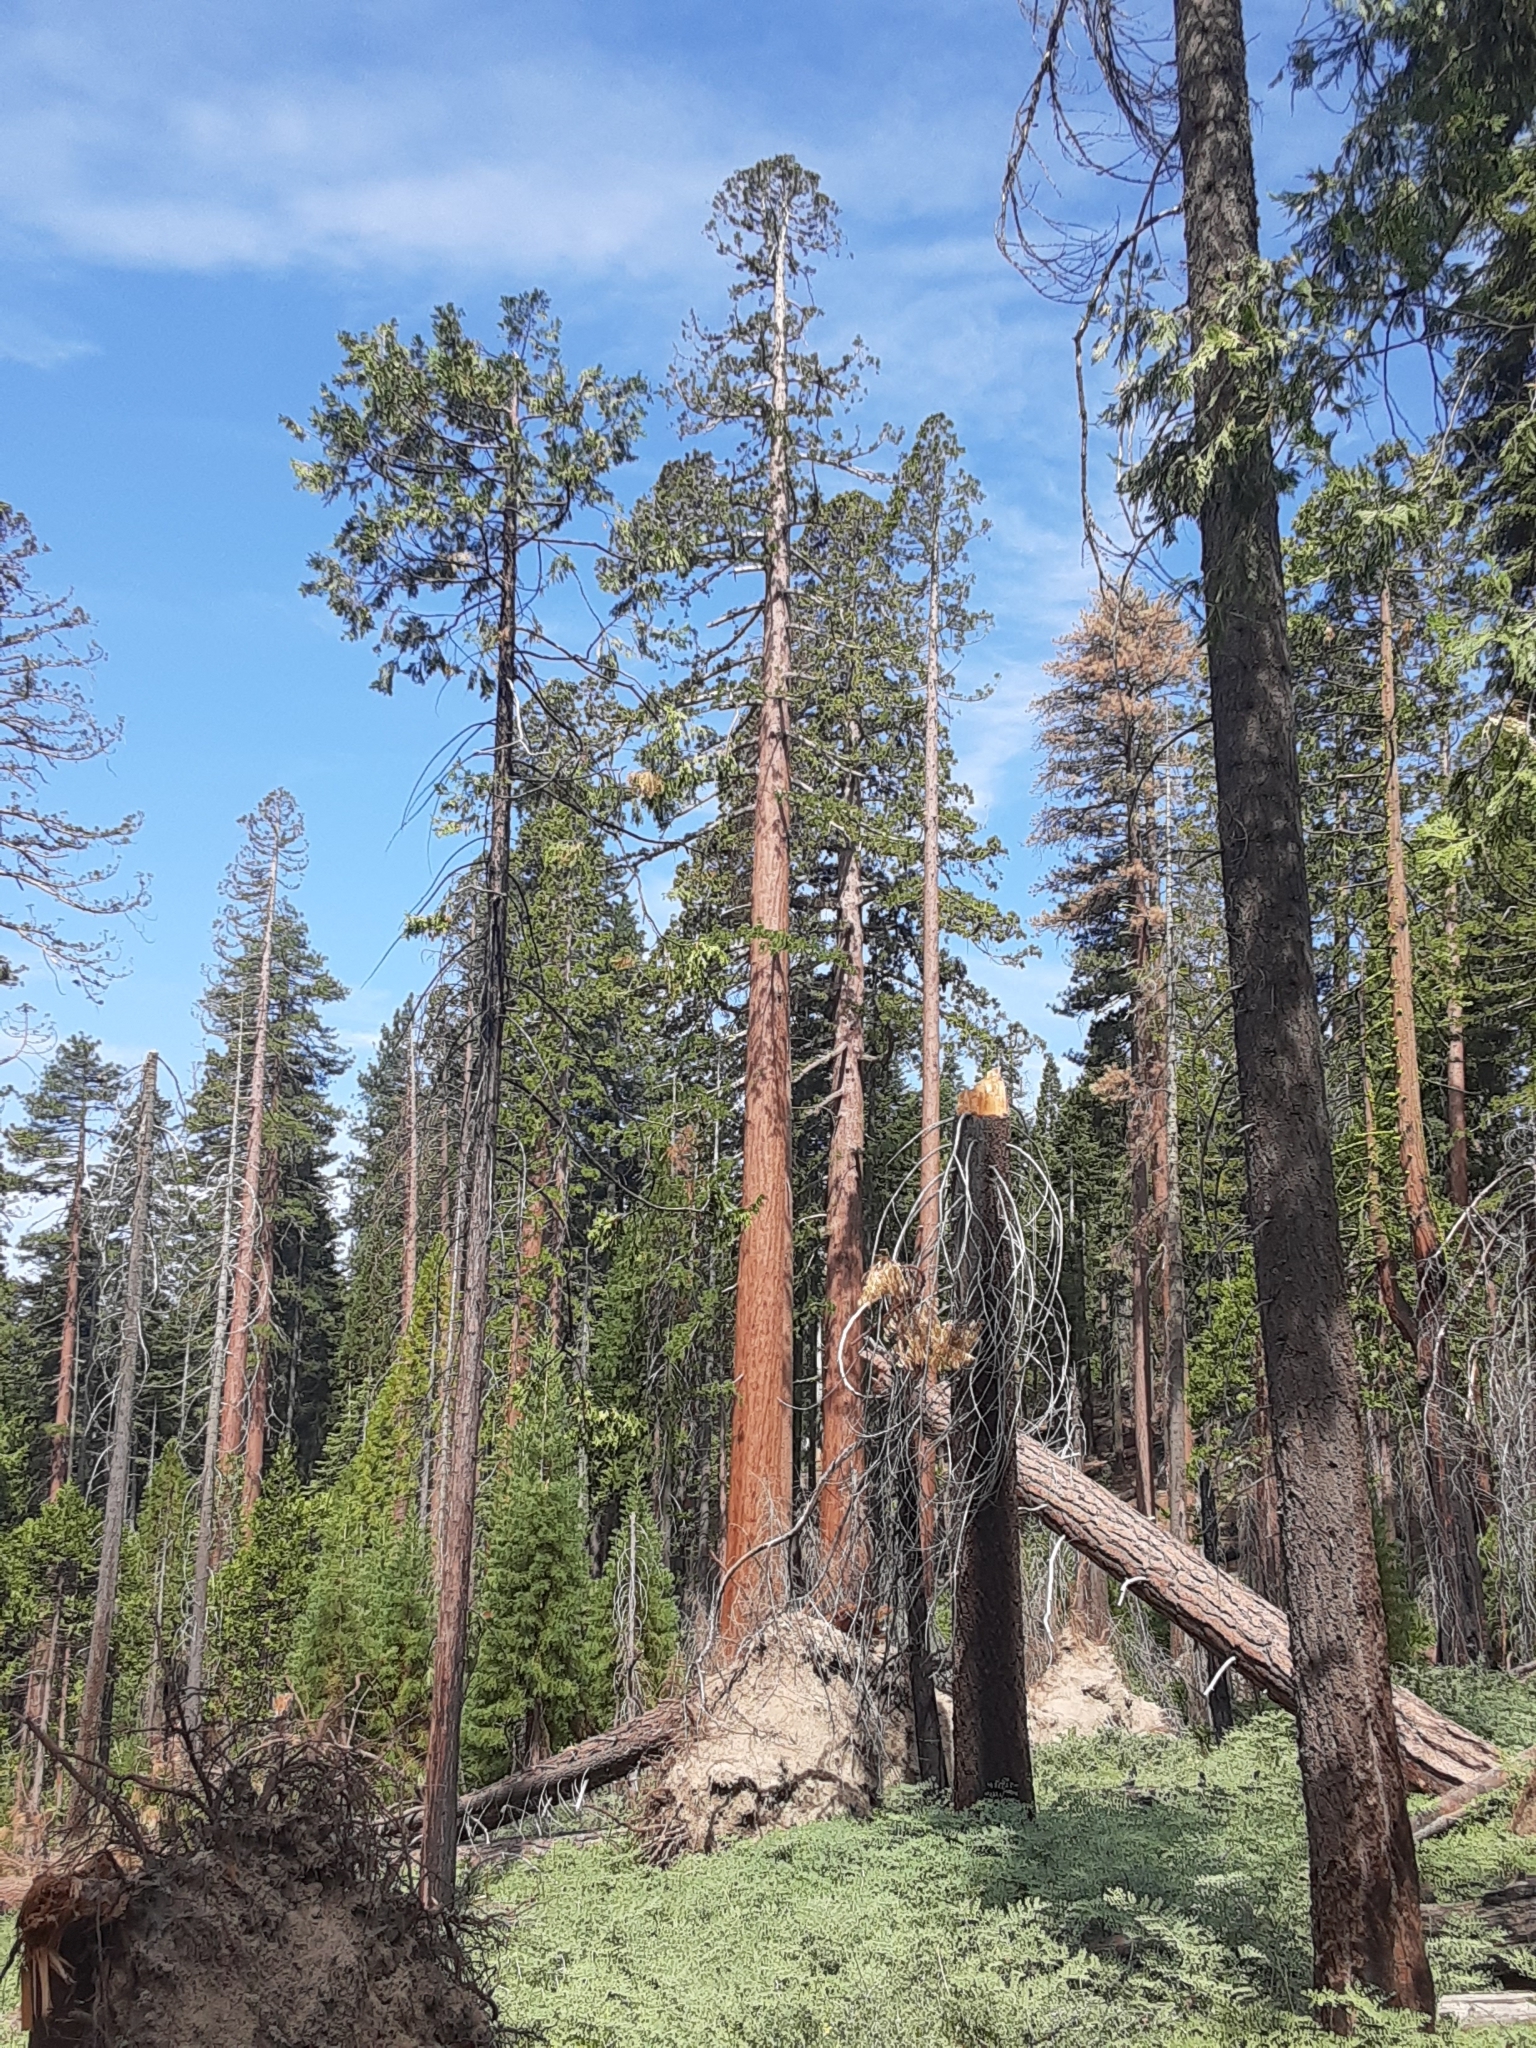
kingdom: Plantae
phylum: Tracheophyta
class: Pinopsida
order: Pinales
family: Cupressaceae
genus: Sequoiadendron
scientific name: Sequoiadendron giganteum
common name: Wellingtonia
